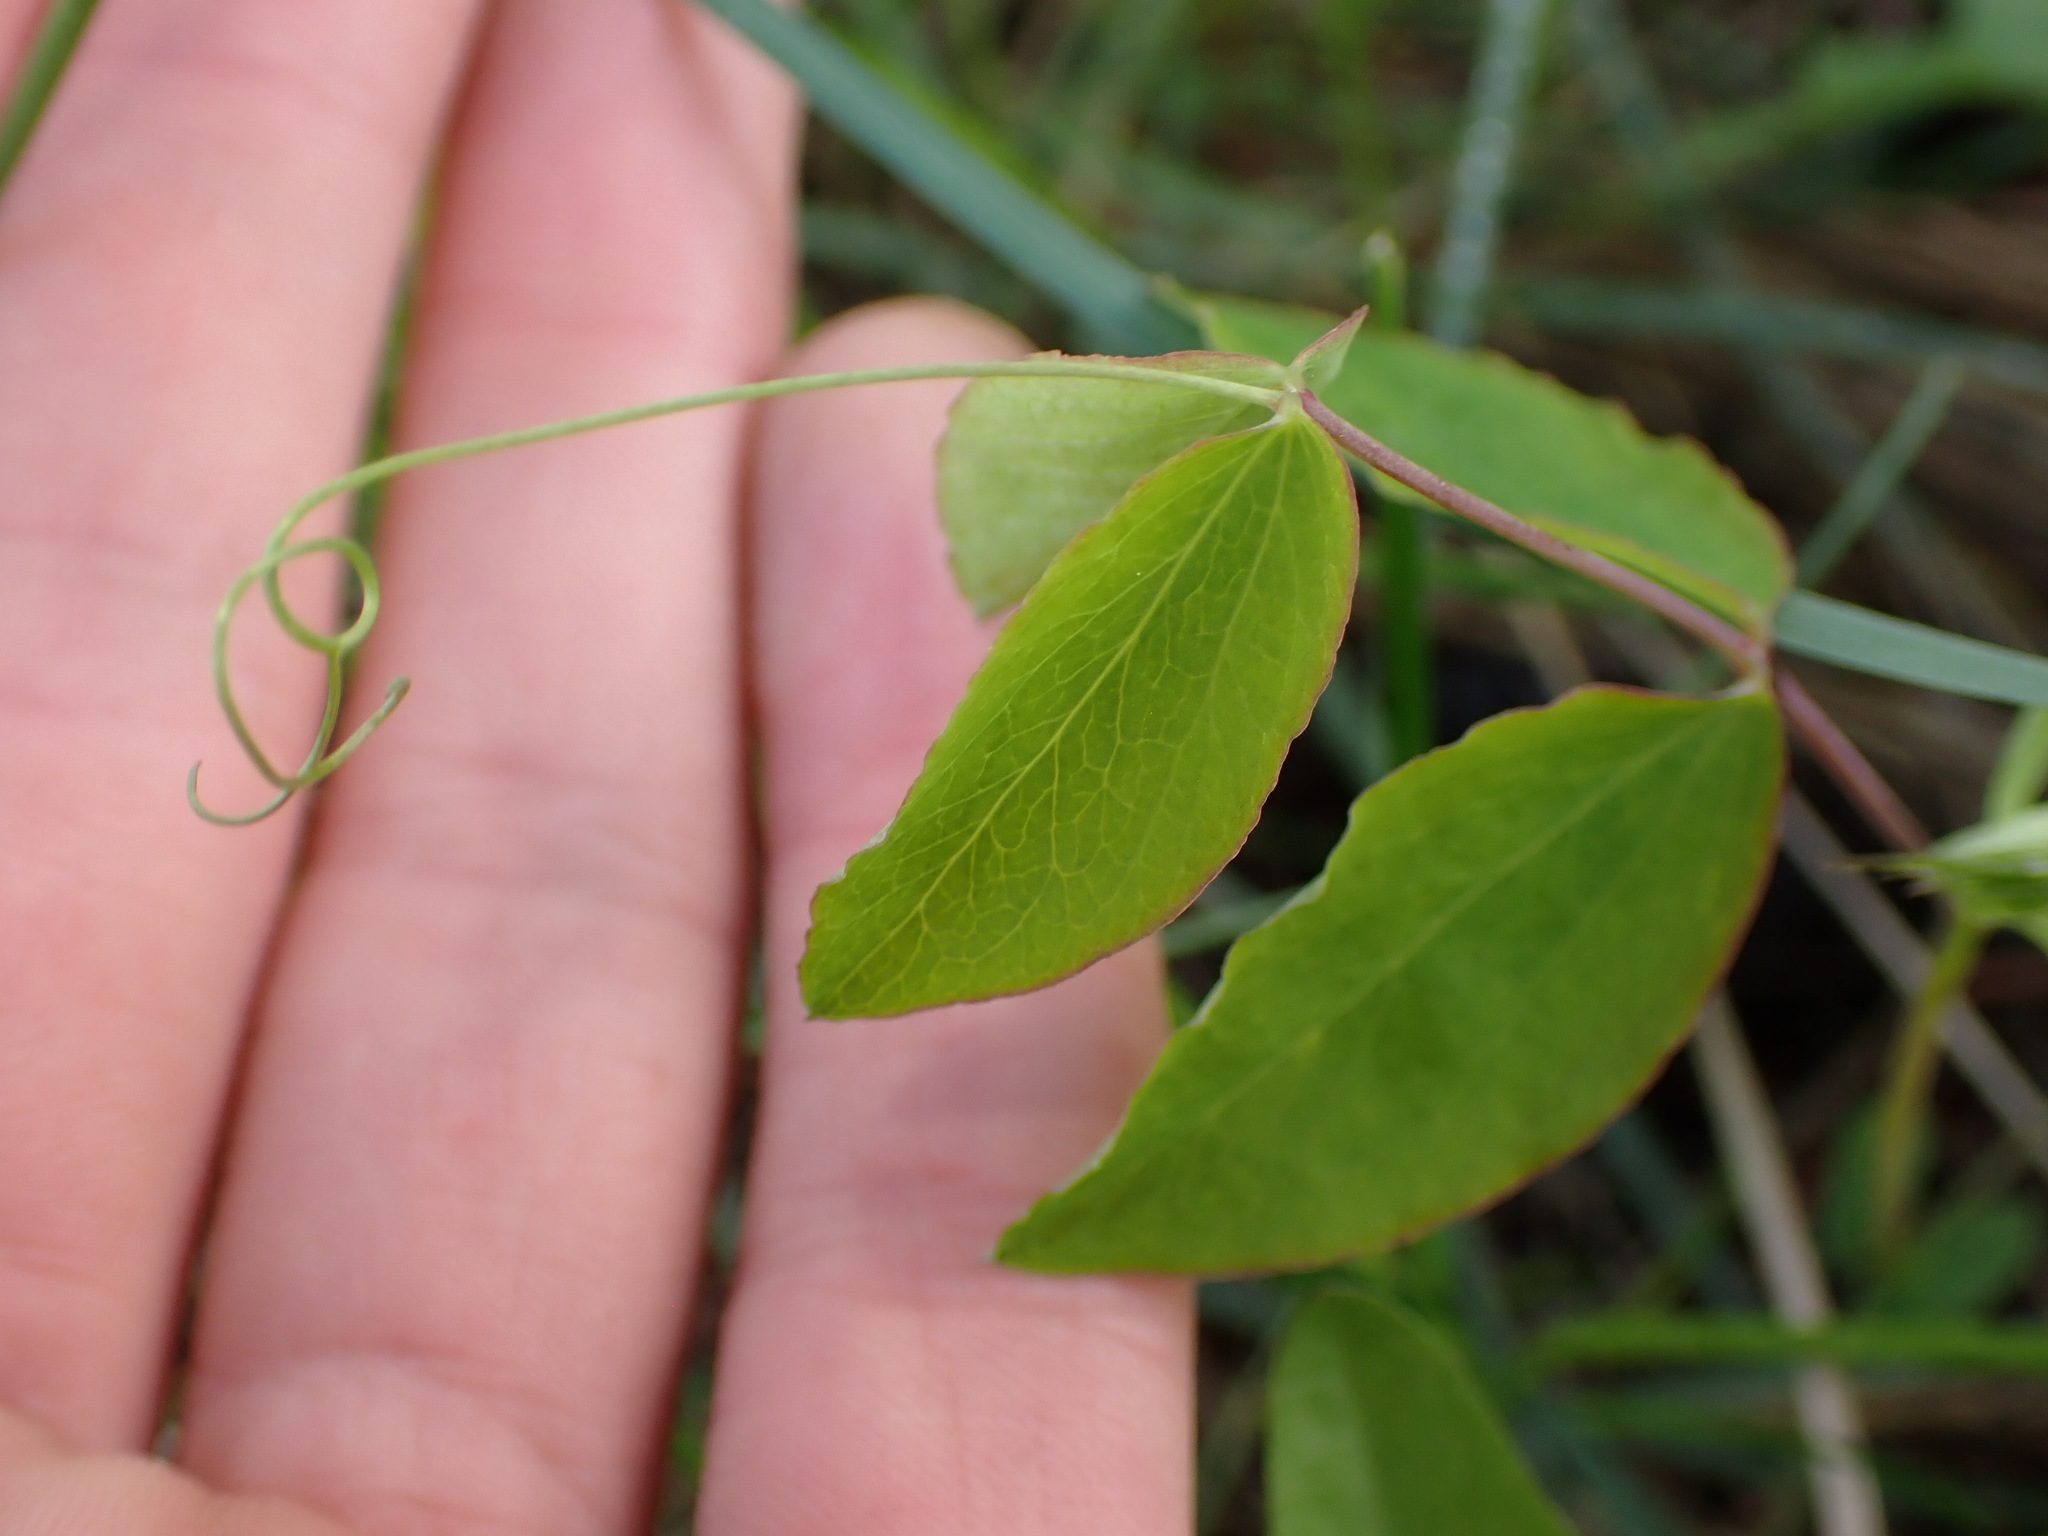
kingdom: Plantae
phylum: Tracheophyta
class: Magnoliopsida
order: Fabales
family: Fabaceae
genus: Lathyrus
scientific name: Lathyrus ochroleucus
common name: Pale vetchling
